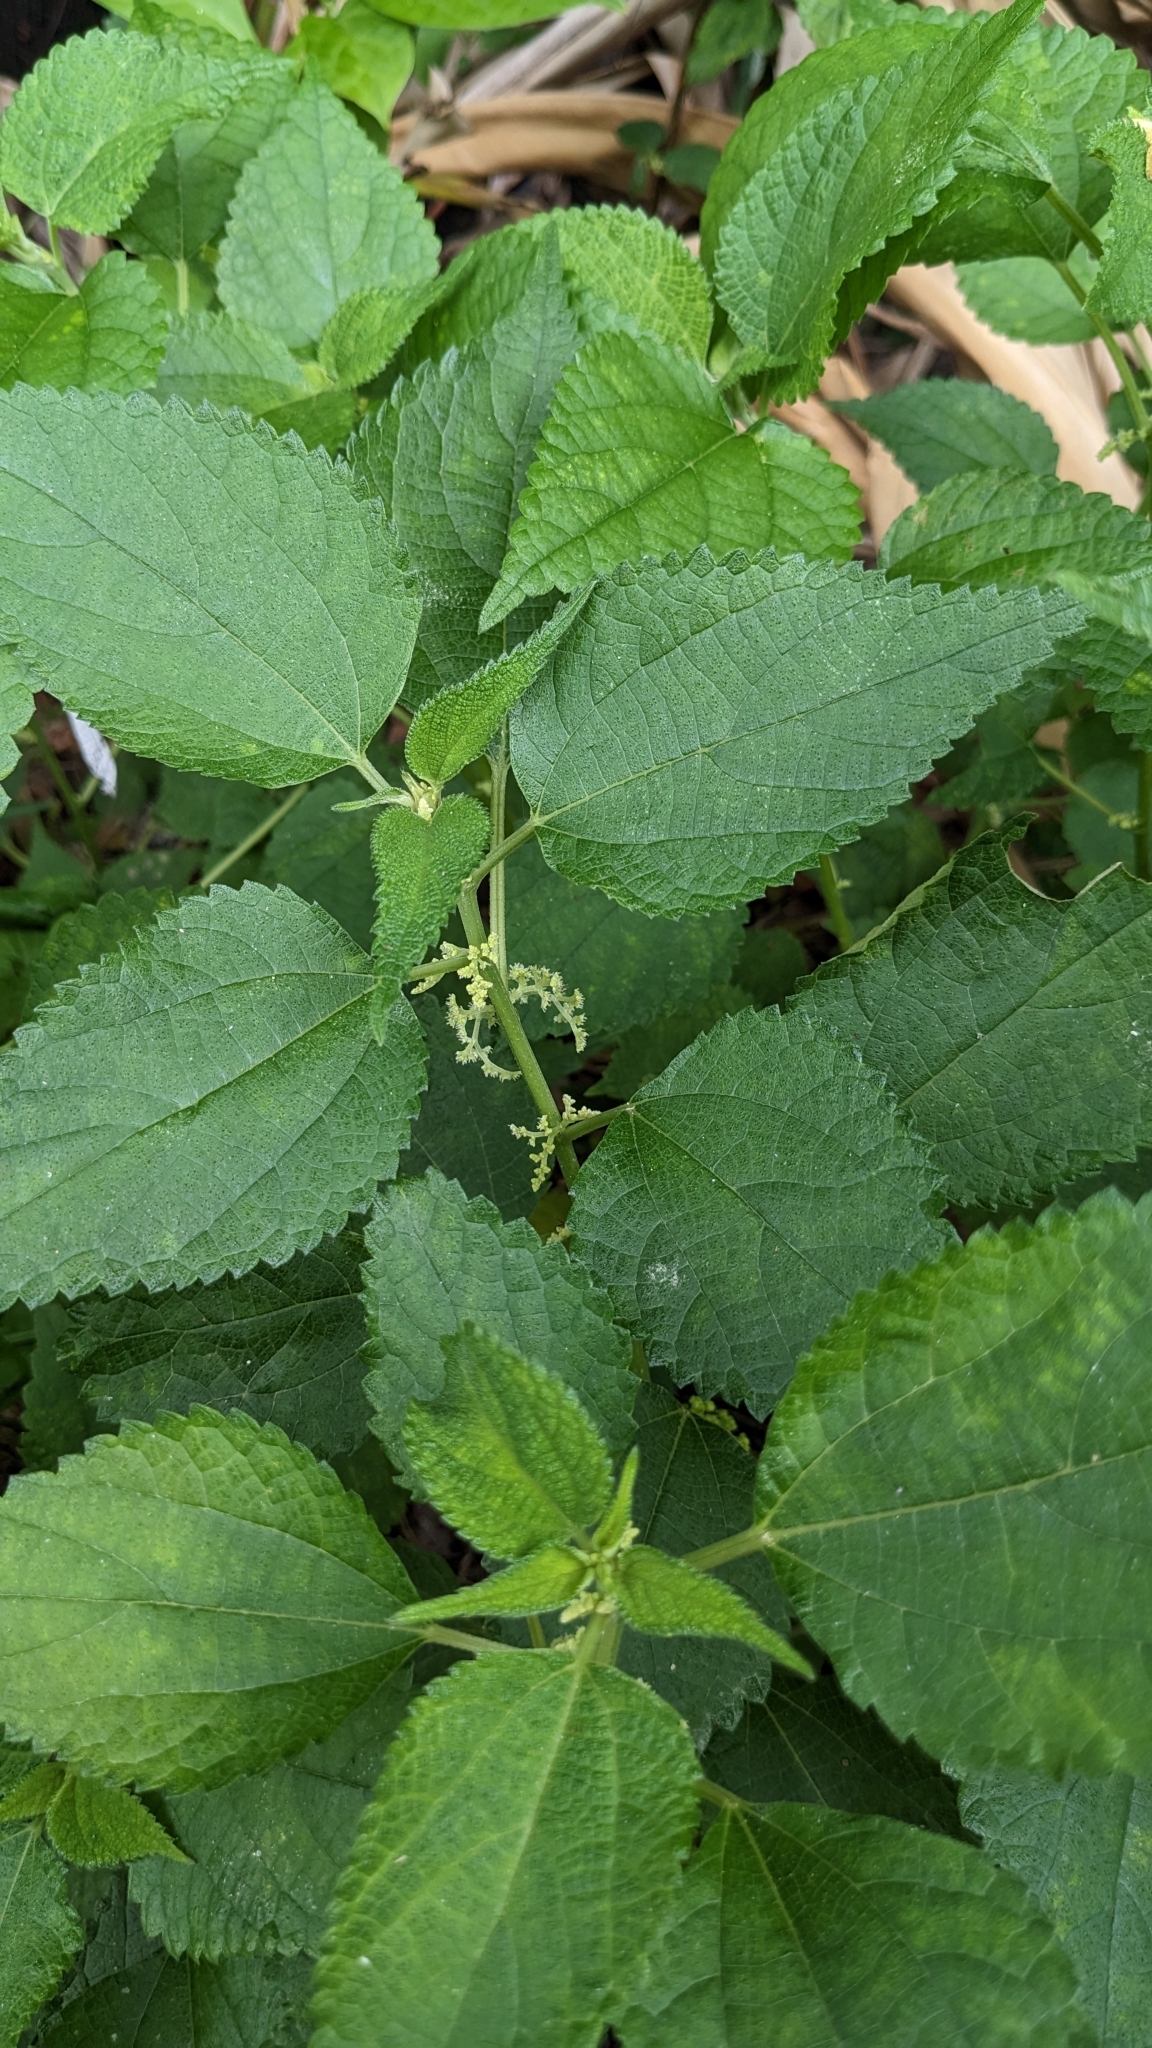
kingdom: Plantae
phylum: Tracheophyta
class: Magnoliopsida
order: Rosales
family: Urticaceae
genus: Boehmeria
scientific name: Boehmeria nivea
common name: Ramie chinese grass
